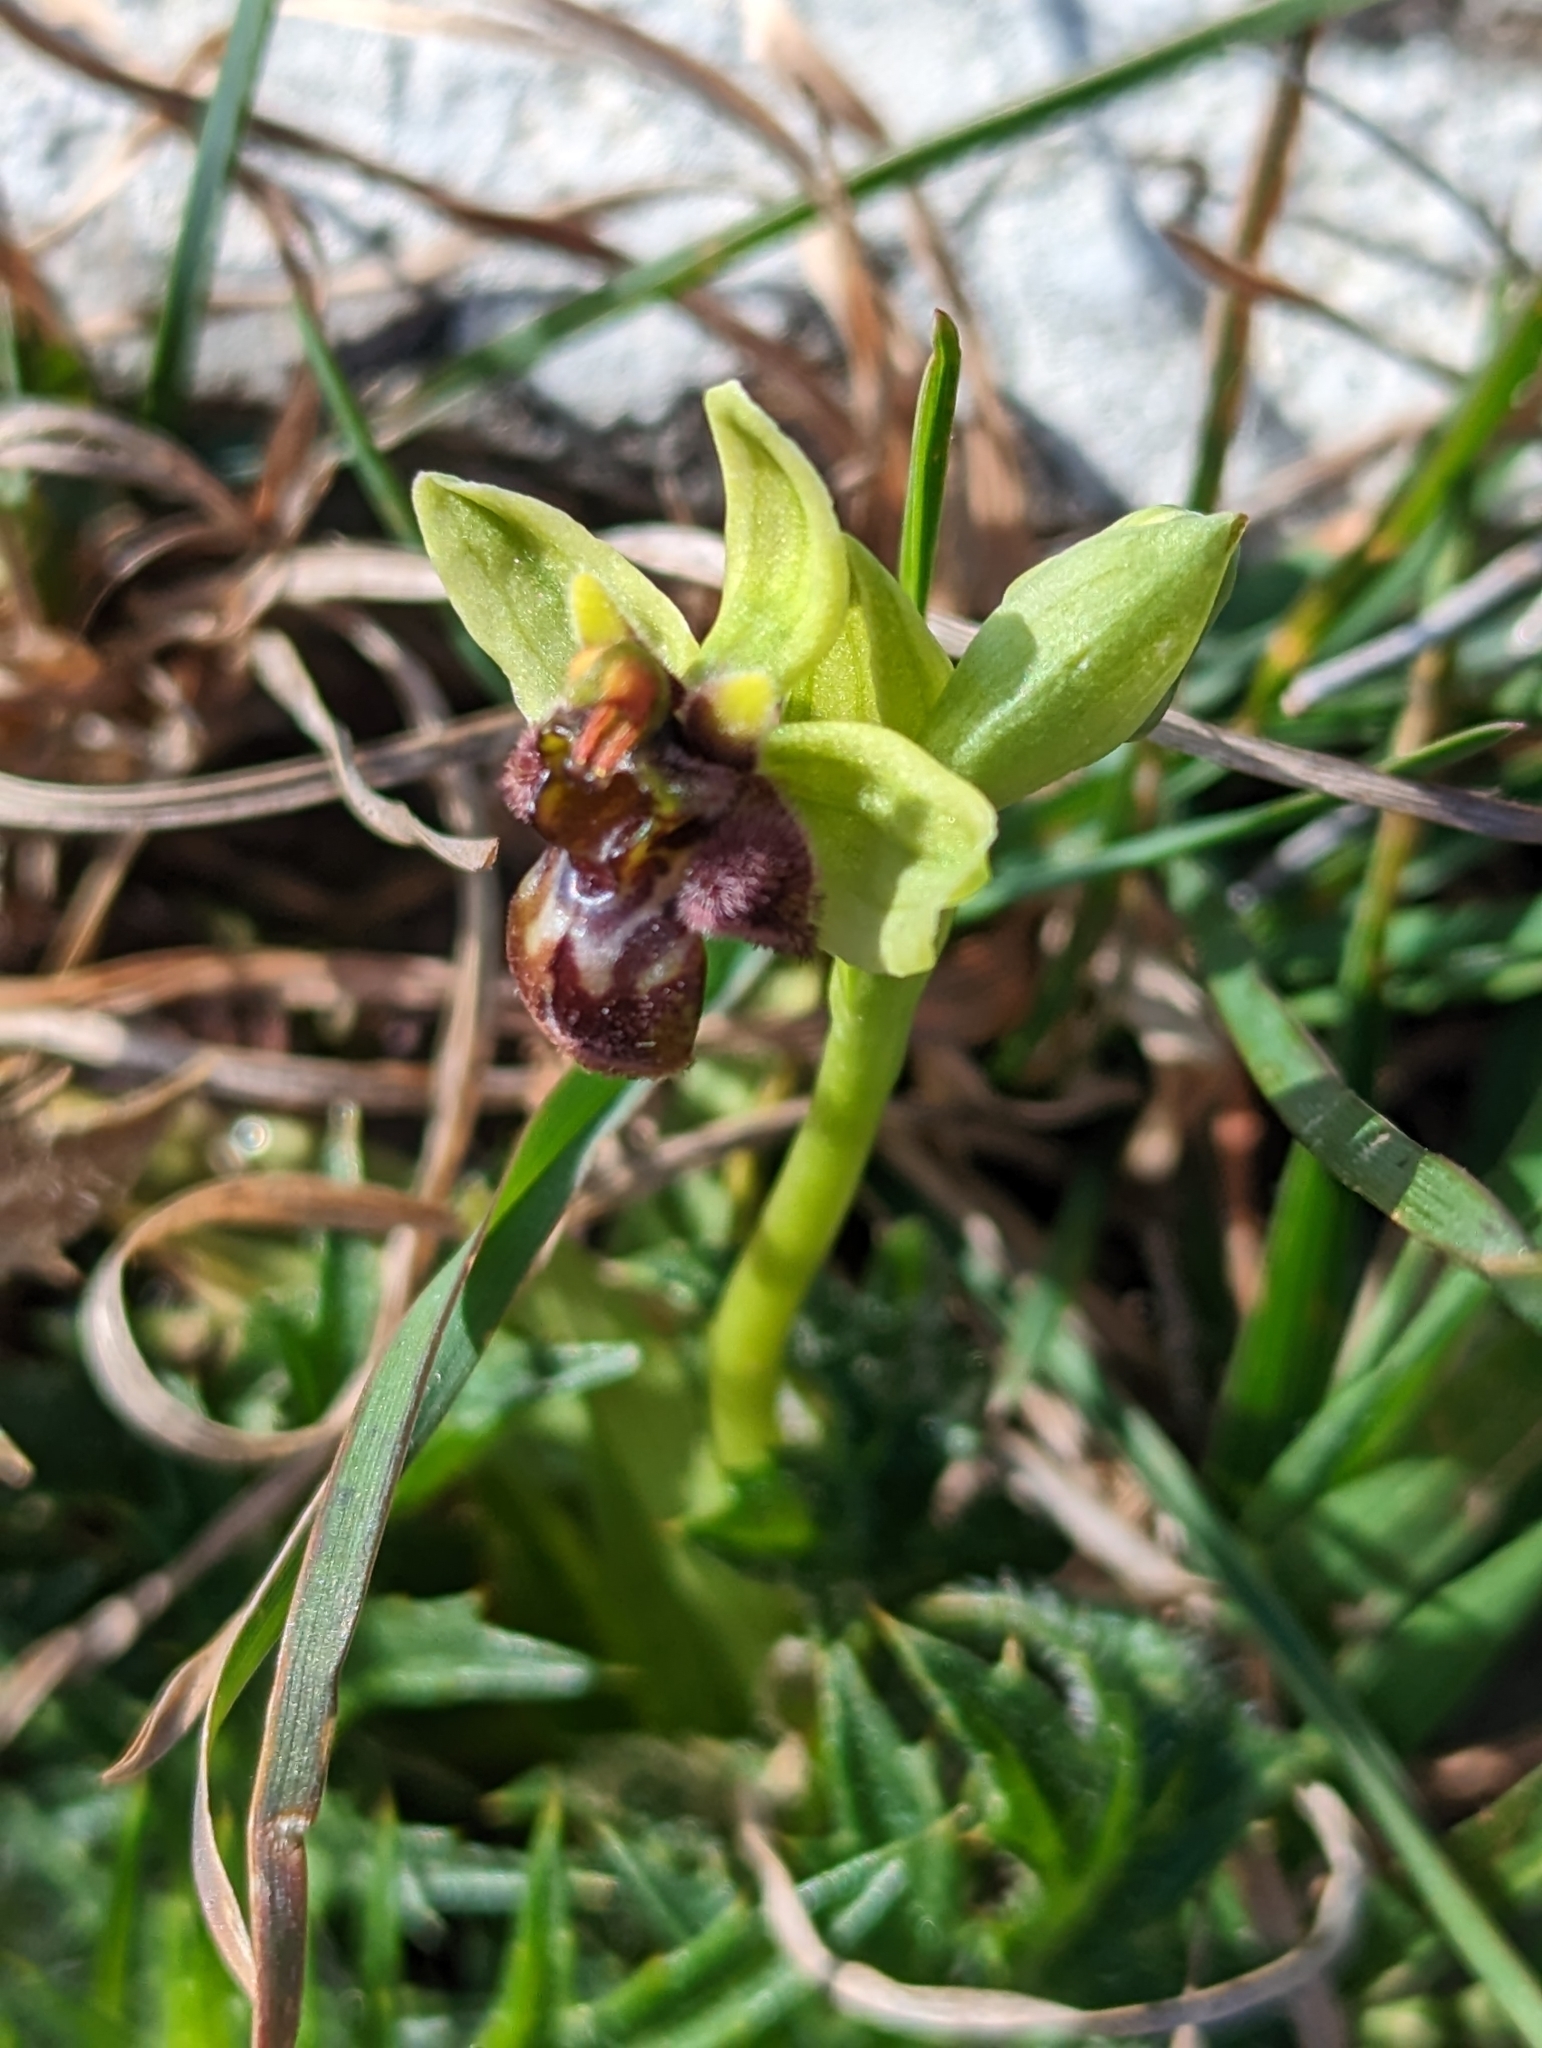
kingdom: Plantae
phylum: Tracheophyta
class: Liliopsida
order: Asparagales
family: Orchidaceae
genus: Ophrys
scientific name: Ophrys bombyliflora
